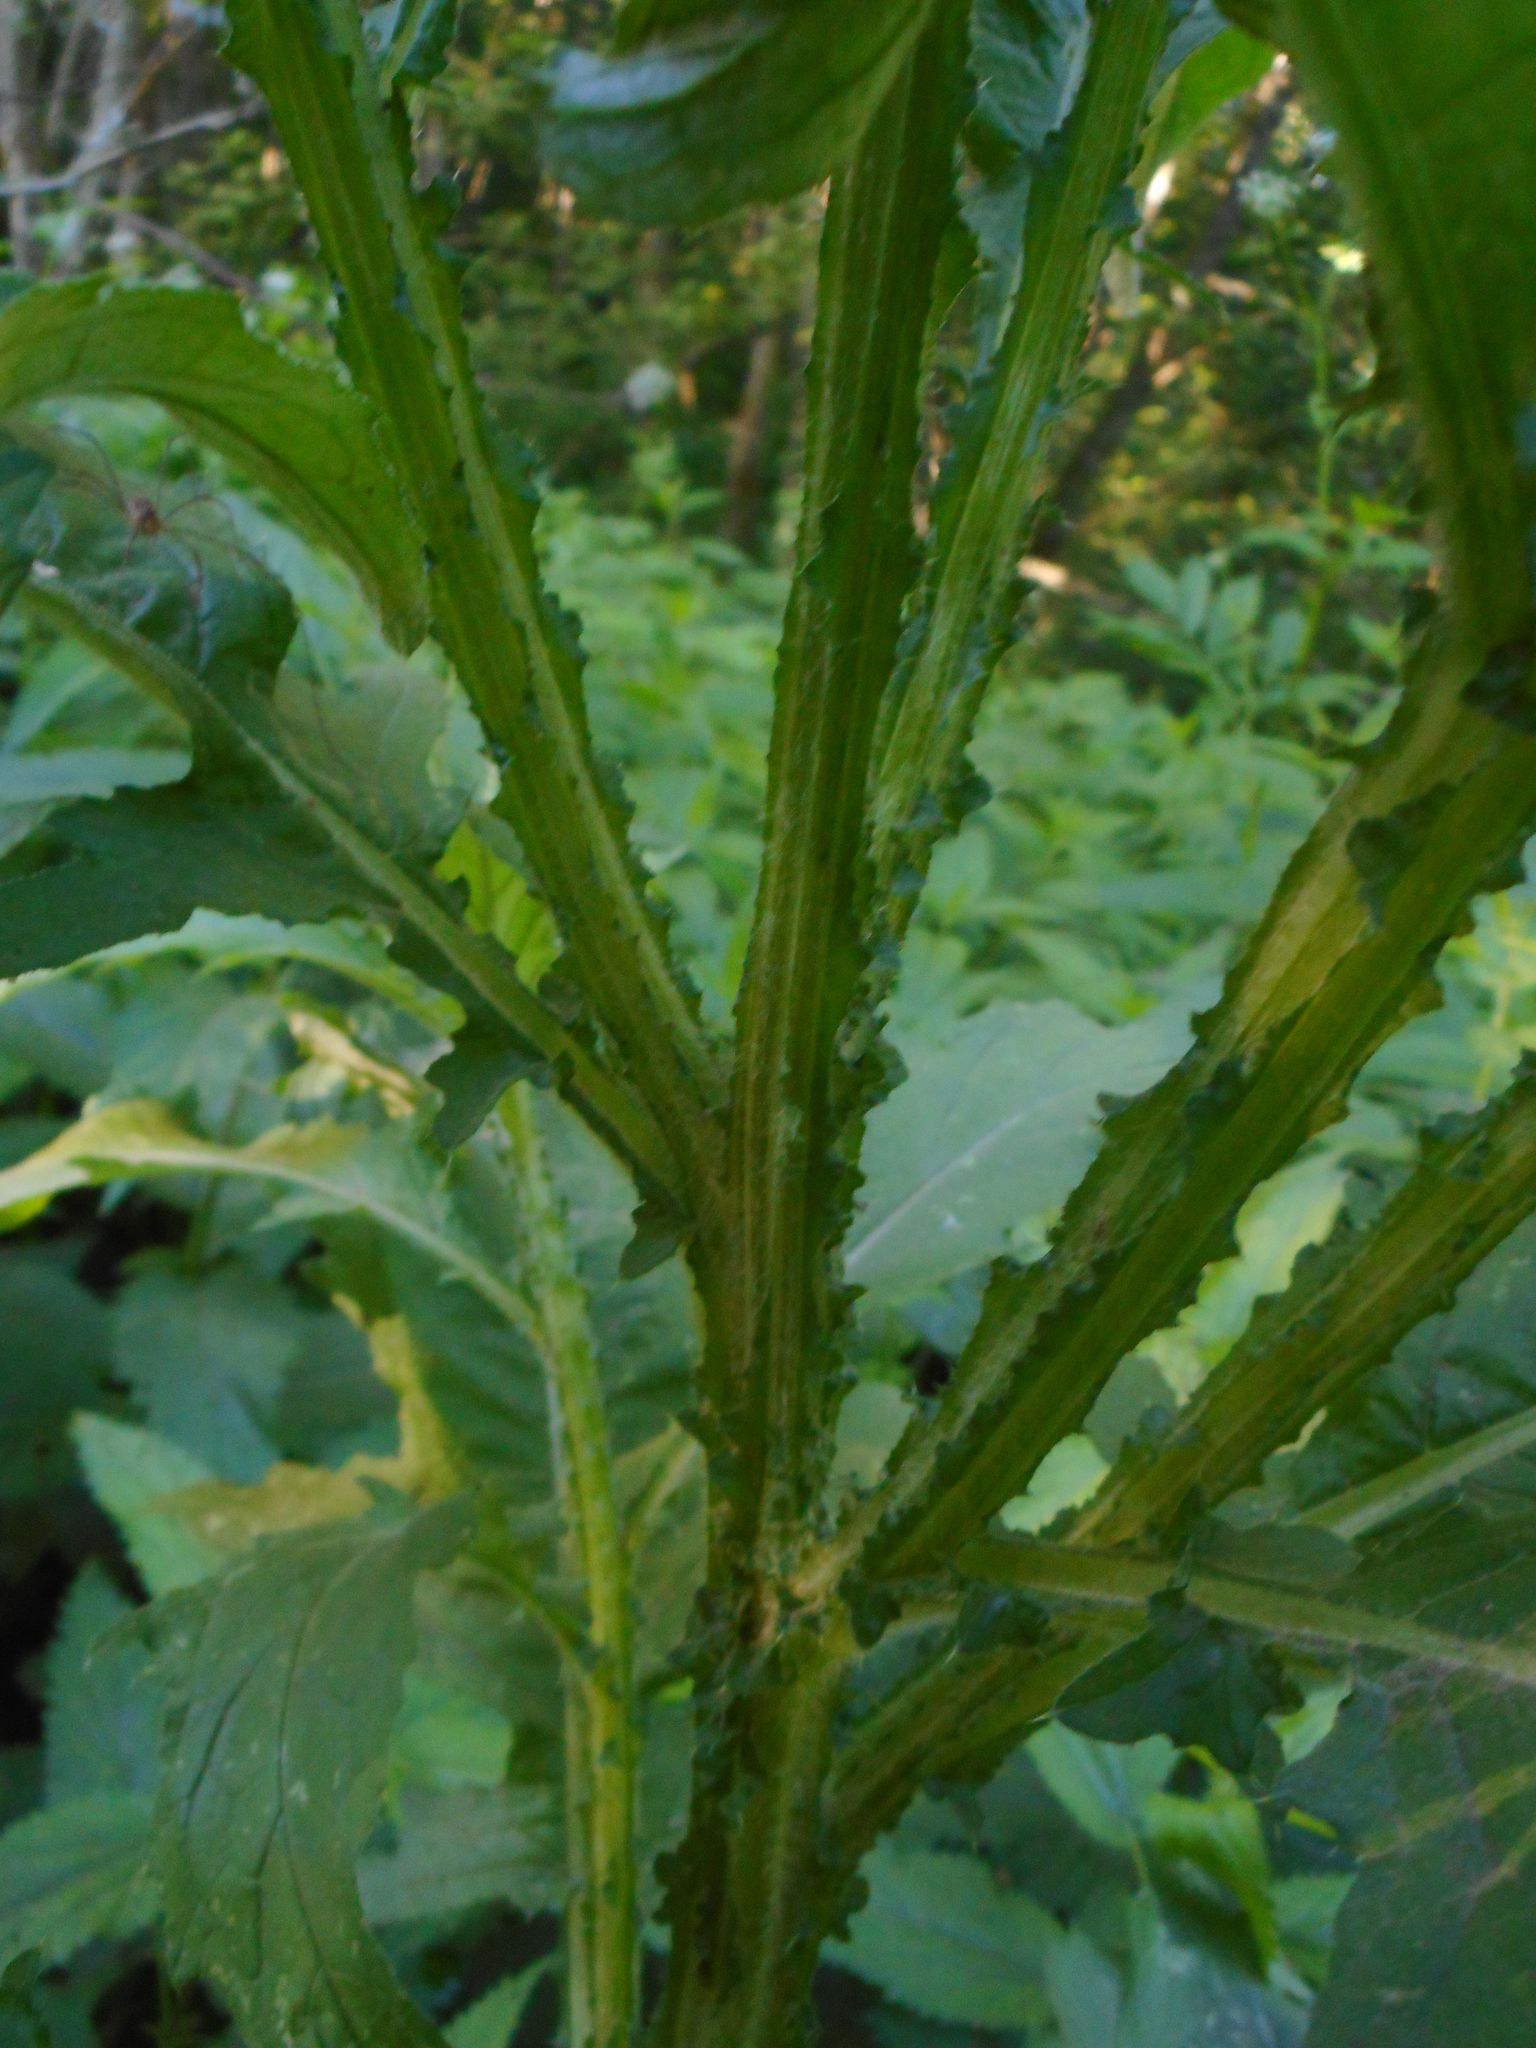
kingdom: Plantae
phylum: Tracheophyta
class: Magnoliopsida
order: Asterales
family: Asteraceae
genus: Carduus
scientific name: Carduus crispus
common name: Welted thistle
